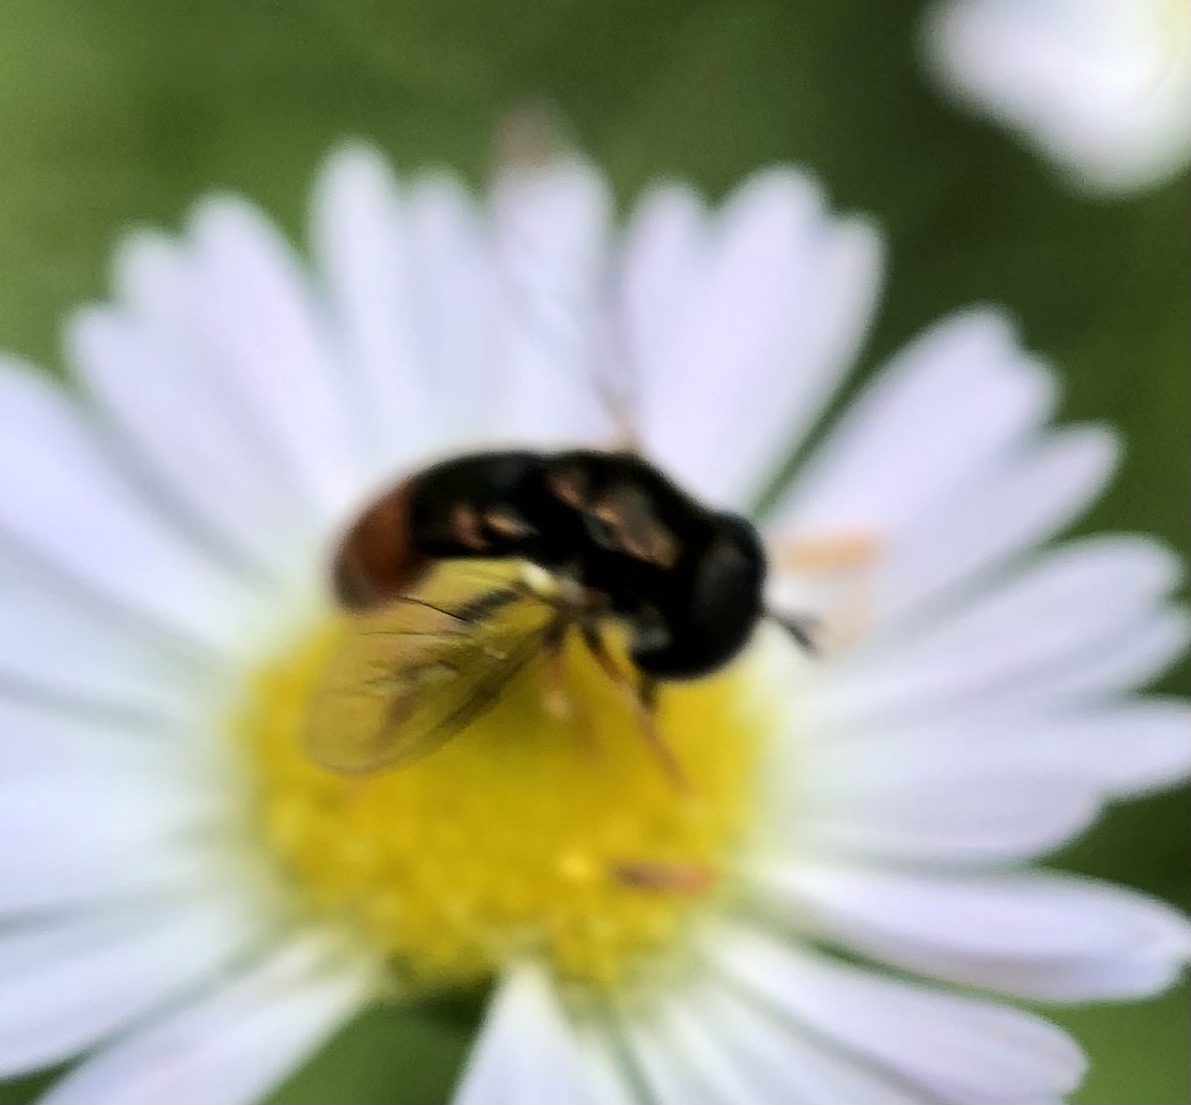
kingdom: Animalia
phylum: Arthropoda
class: Insecta
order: Diptera
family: Syrphidae
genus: Paragus
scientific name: Paragus haemorrhous
